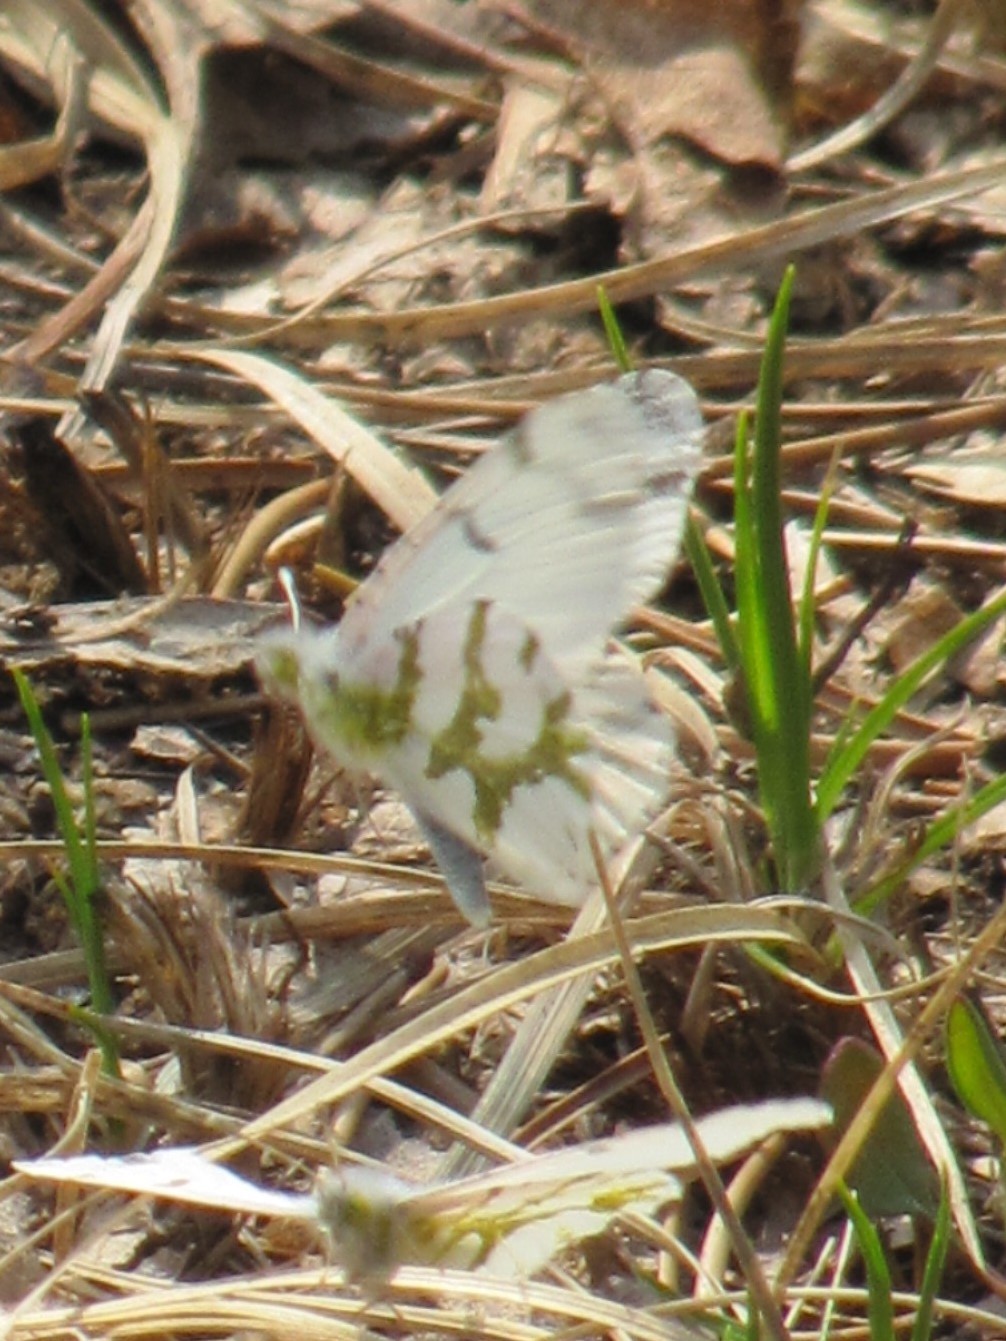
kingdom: Animalia
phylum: Arthropoda
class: Insecta
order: Lepidoptera
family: Pieridae
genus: Euchloe
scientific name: Euchloe olympia
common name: Olympia
